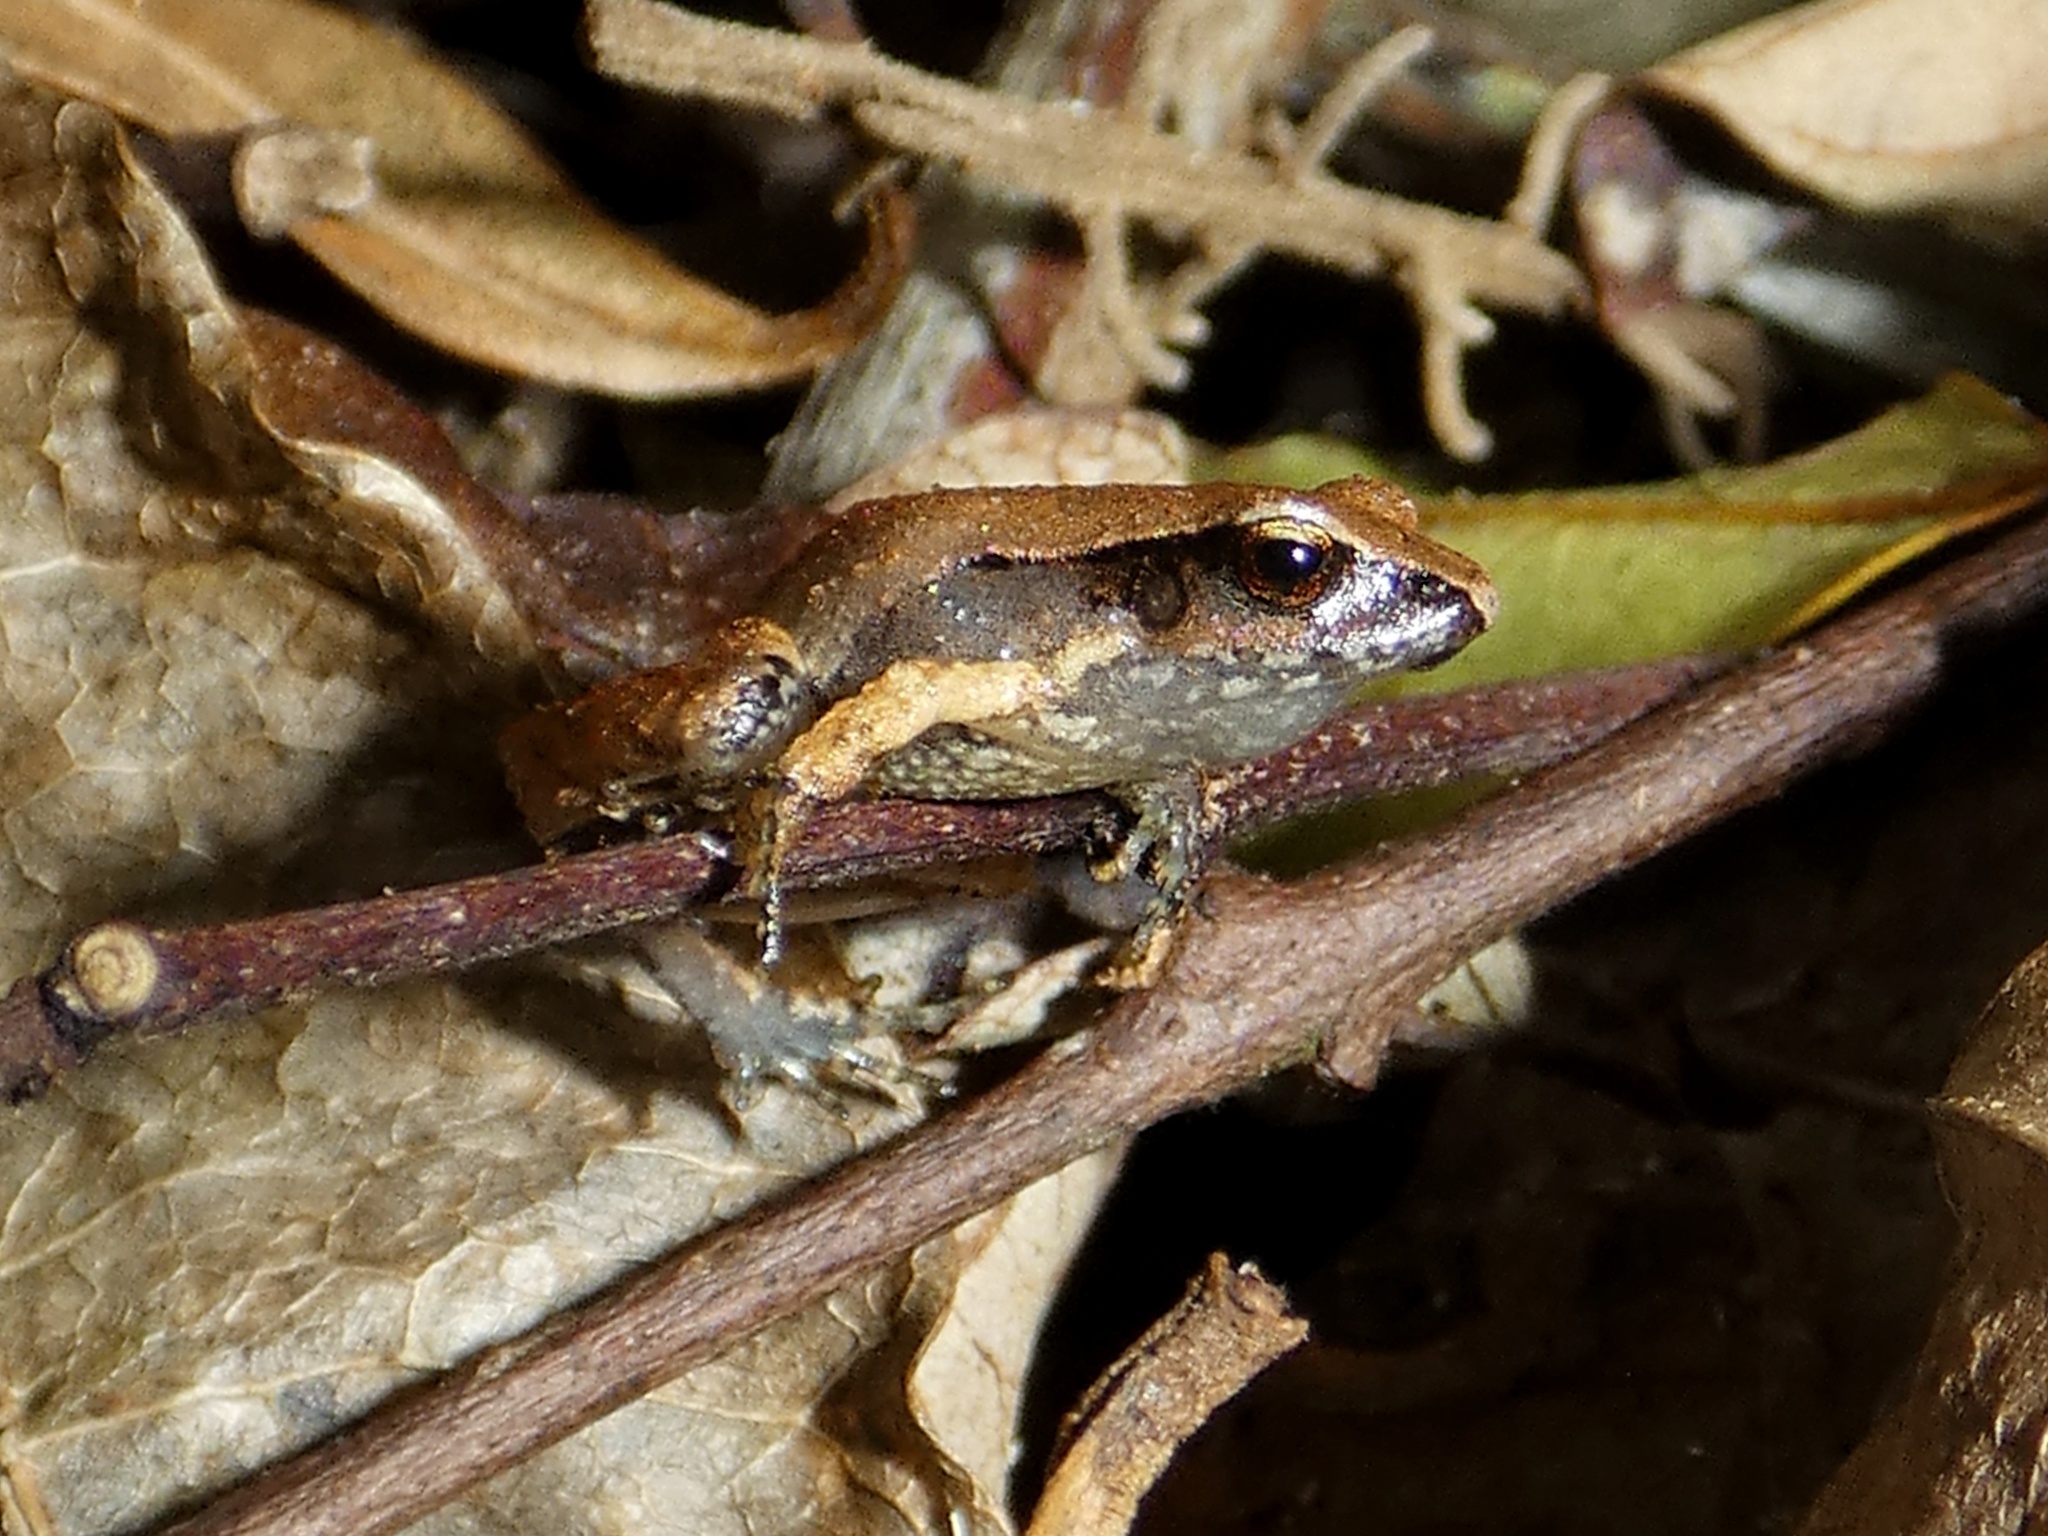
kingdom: Animalia
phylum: Chordata
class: Amphibia
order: Anura
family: Craugastoridae
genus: Craugastor
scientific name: Craugastor podiciferus
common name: Cerro utyum robber frog
